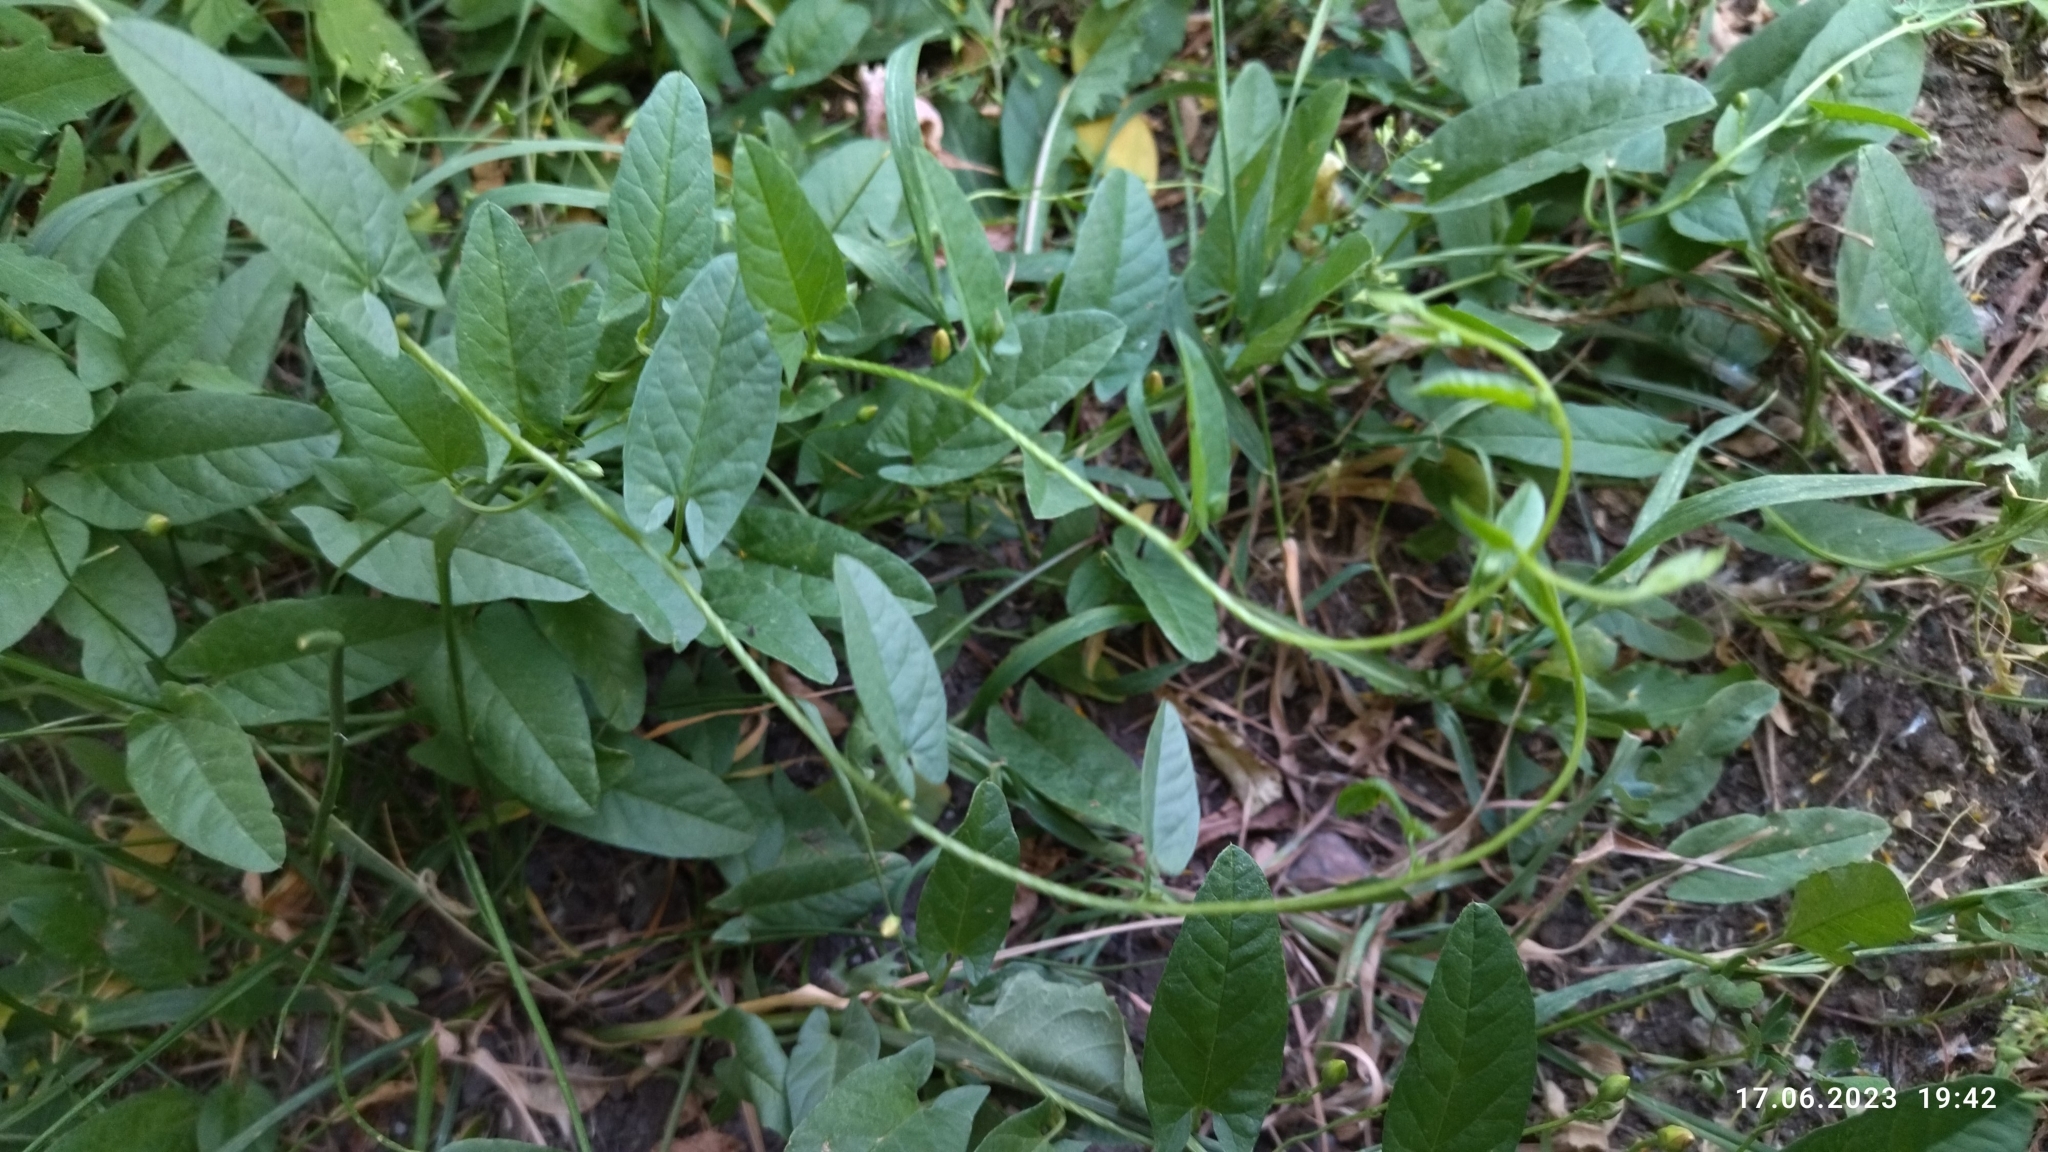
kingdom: Plantae
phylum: Tracheophyta
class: Magnoliopsida
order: Solanales
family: Convolvulaceae
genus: Convolvulus
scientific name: Convolvulus arvensis
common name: Field bindweed
